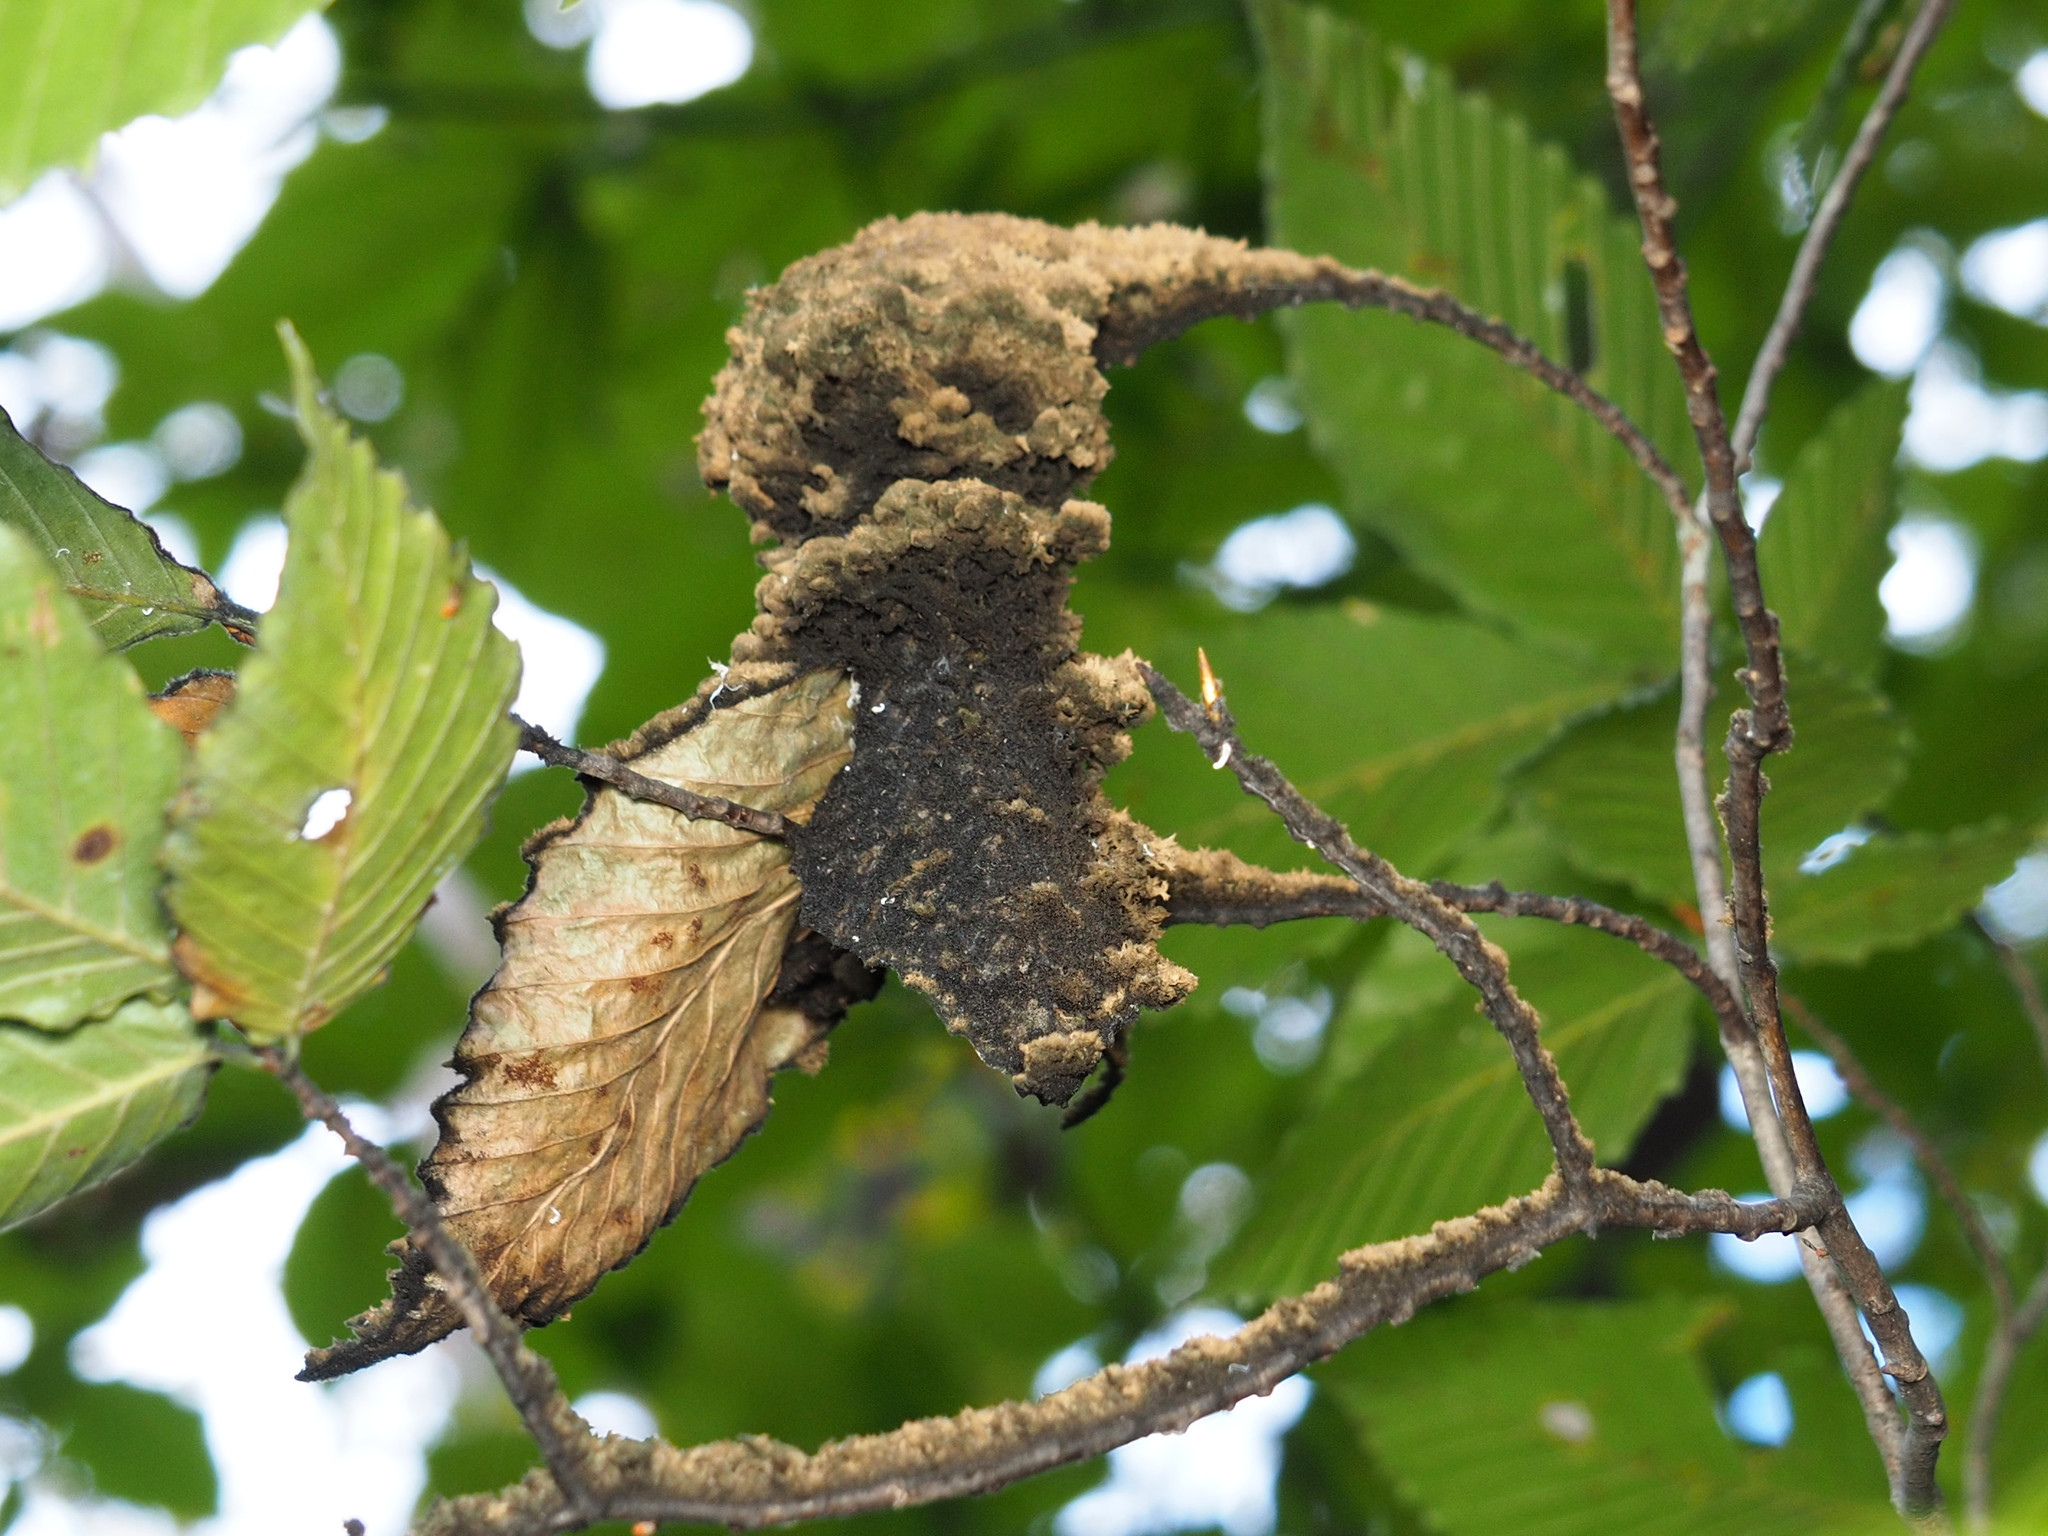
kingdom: Fungi
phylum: Ascomycota
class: Dothideomycetes
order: Capnodiales
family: Capnodiaceae
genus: Scorias
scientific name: Scorias spongiosa
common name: Black sooty mold
